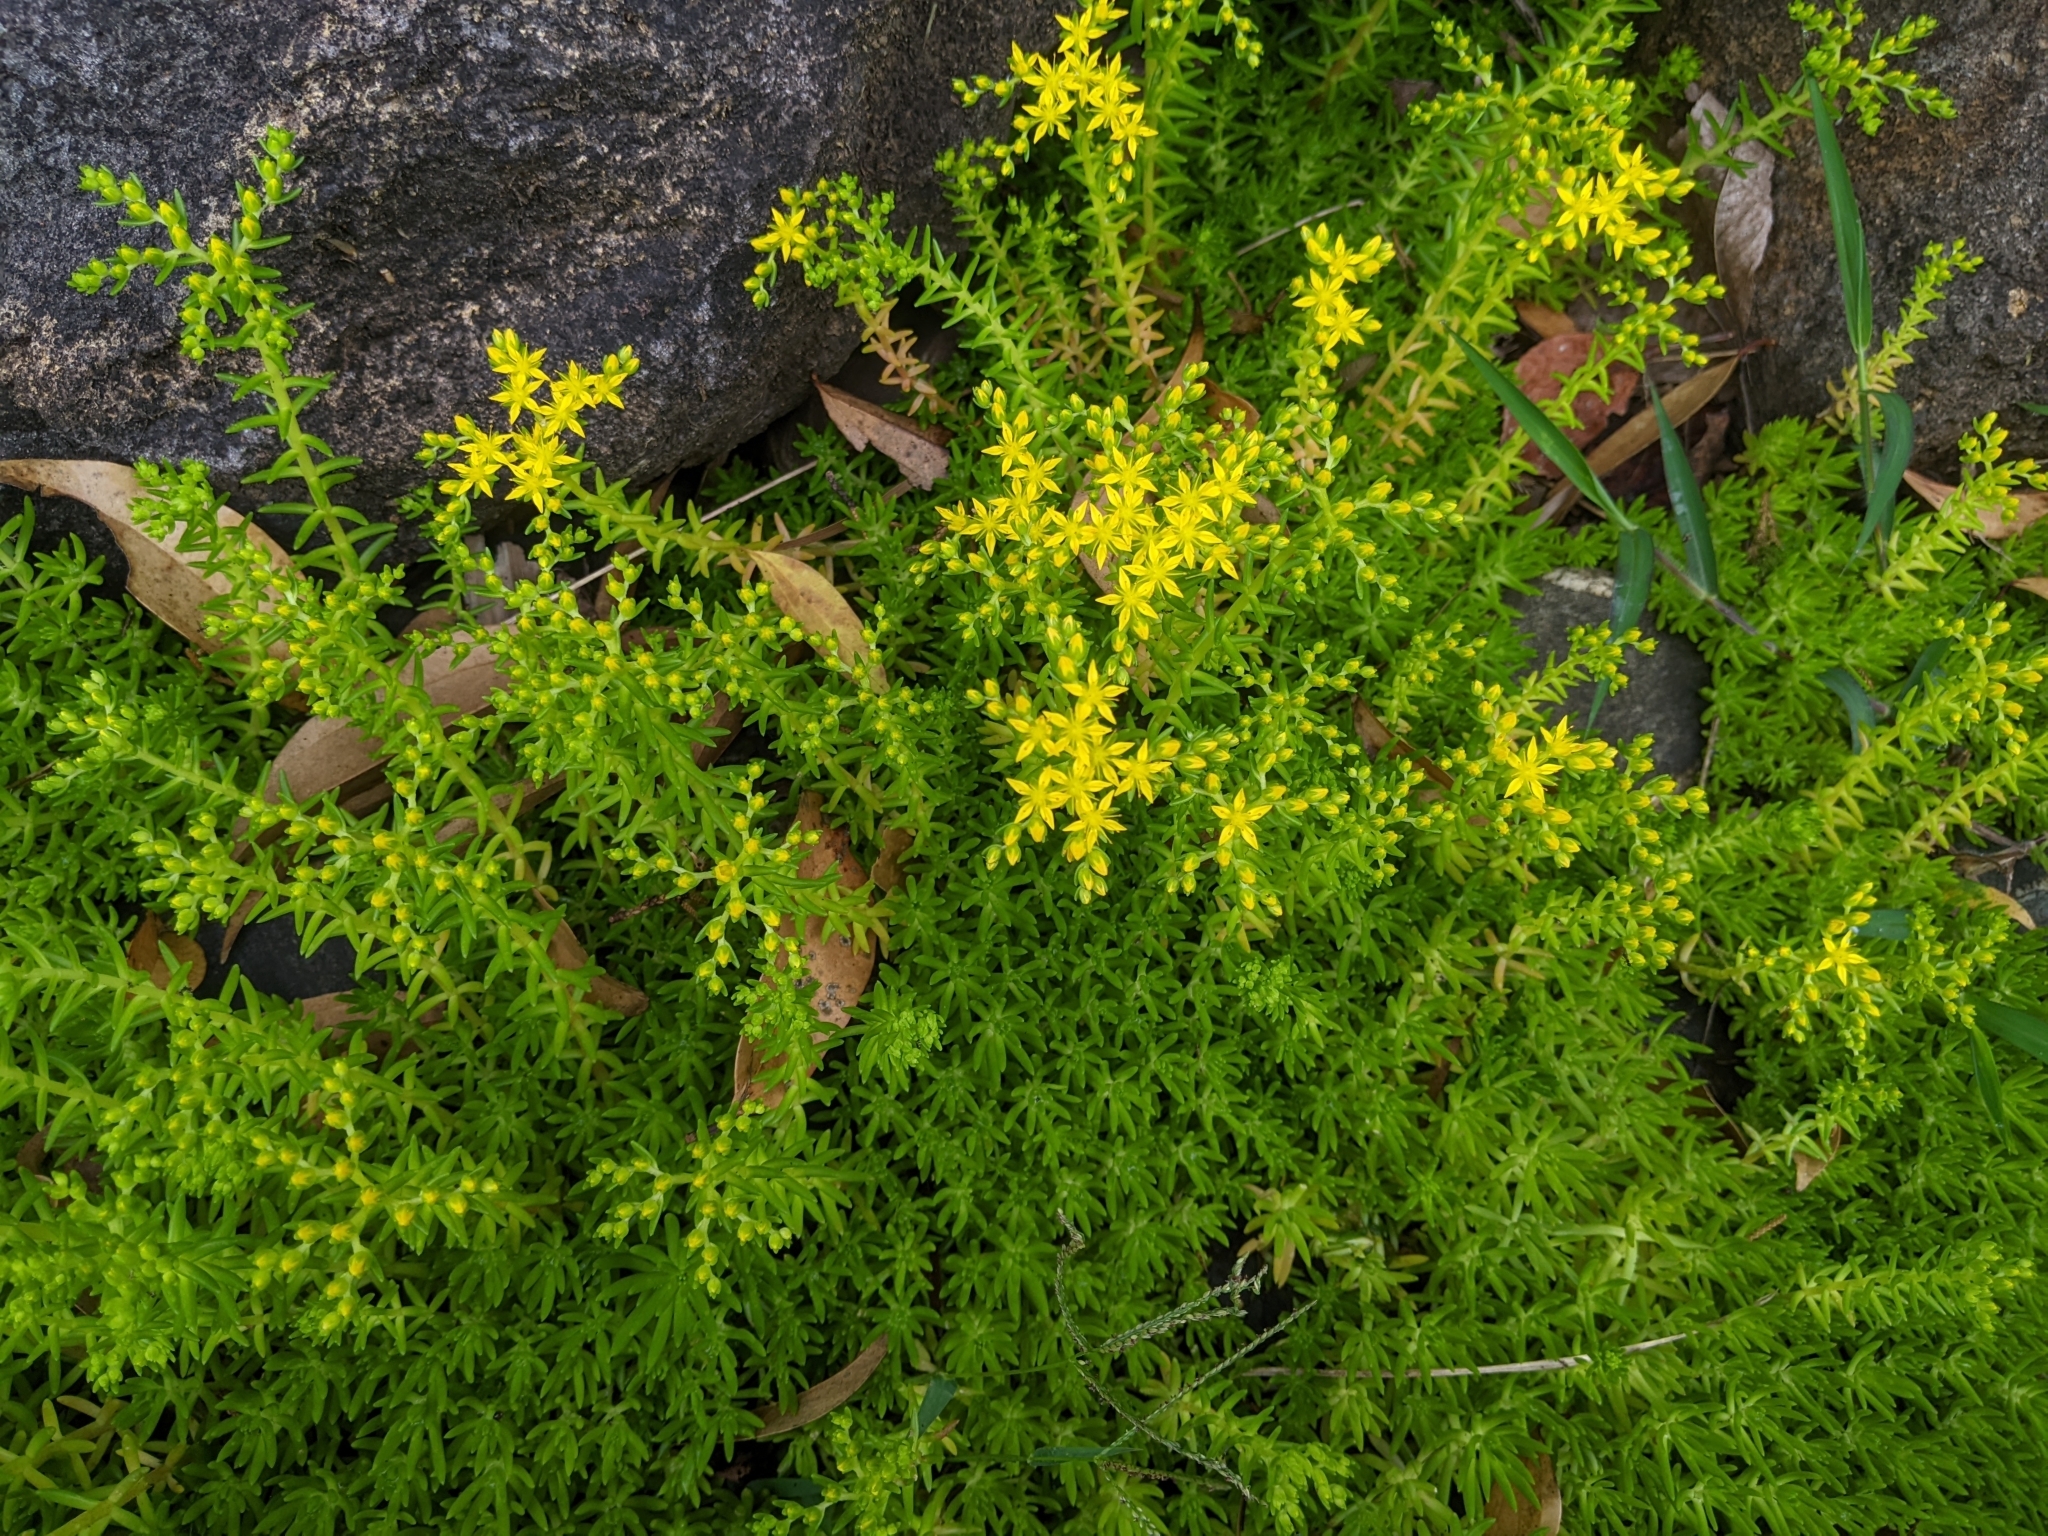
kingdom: Plantae
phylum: Tracheophyta
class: Magnoliopsida
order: Saxifragales
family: Crassulaceae
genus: Sedum
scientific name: Sedum mexicanum
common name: Mexican stonecrop
